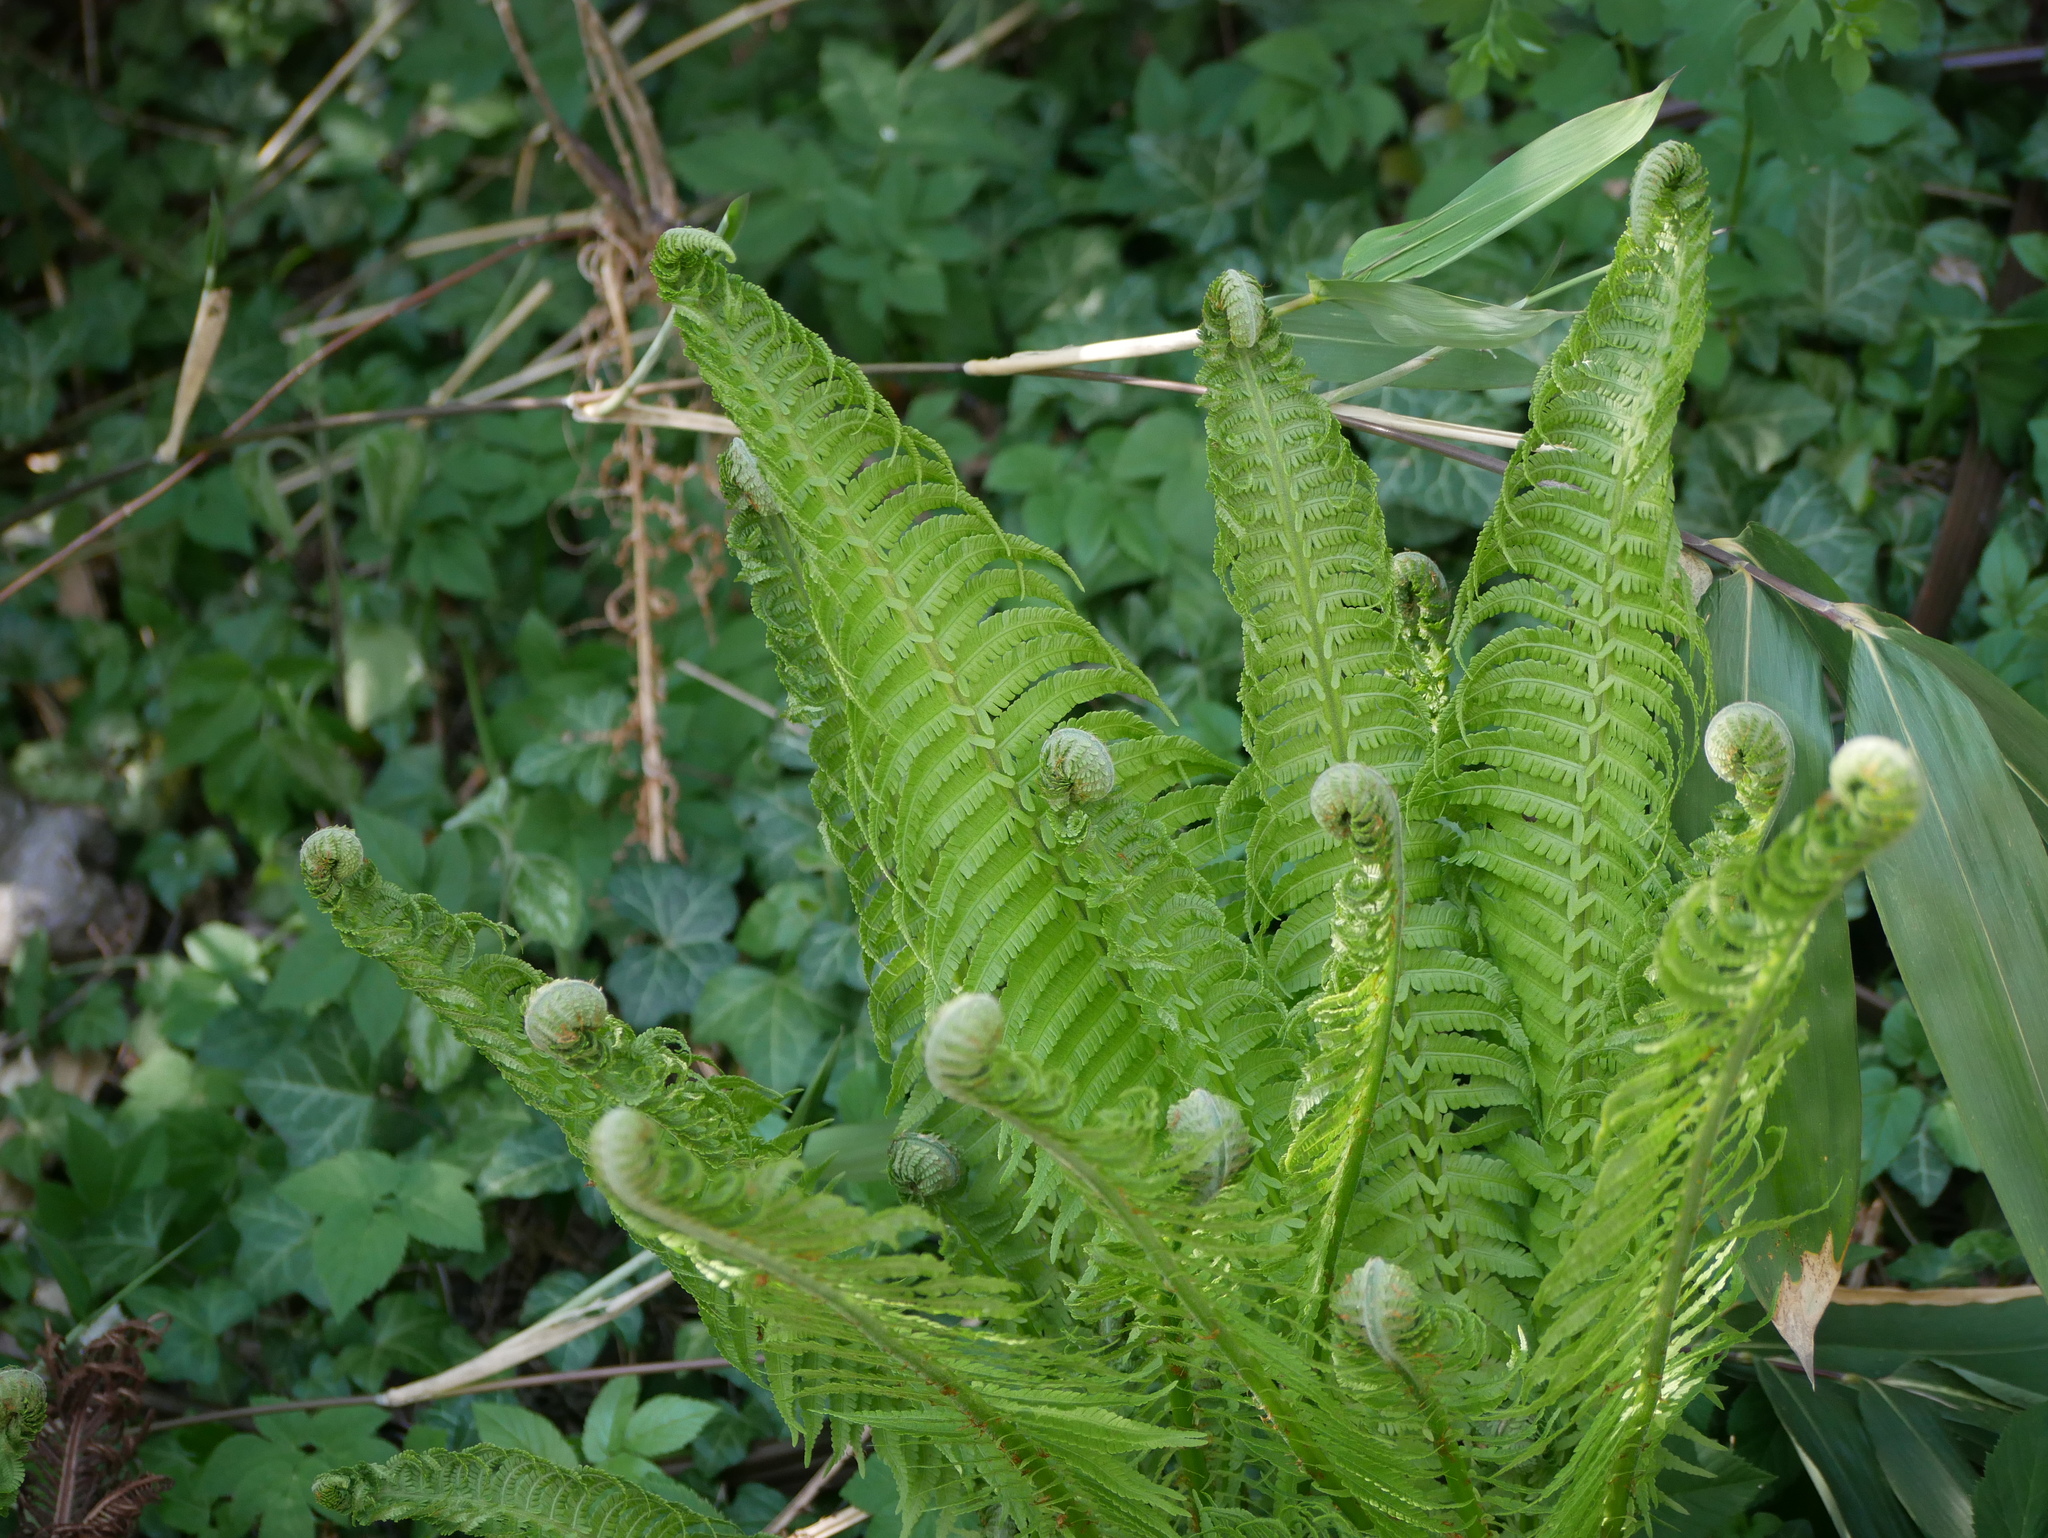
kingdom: Plantae
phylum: Tracheophyta
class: Polypodiopsida
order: Polypodiales
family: Onocleaceae
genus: Matteuccia
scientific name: Matteuccia struthiopteris
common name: Ostrich fern
